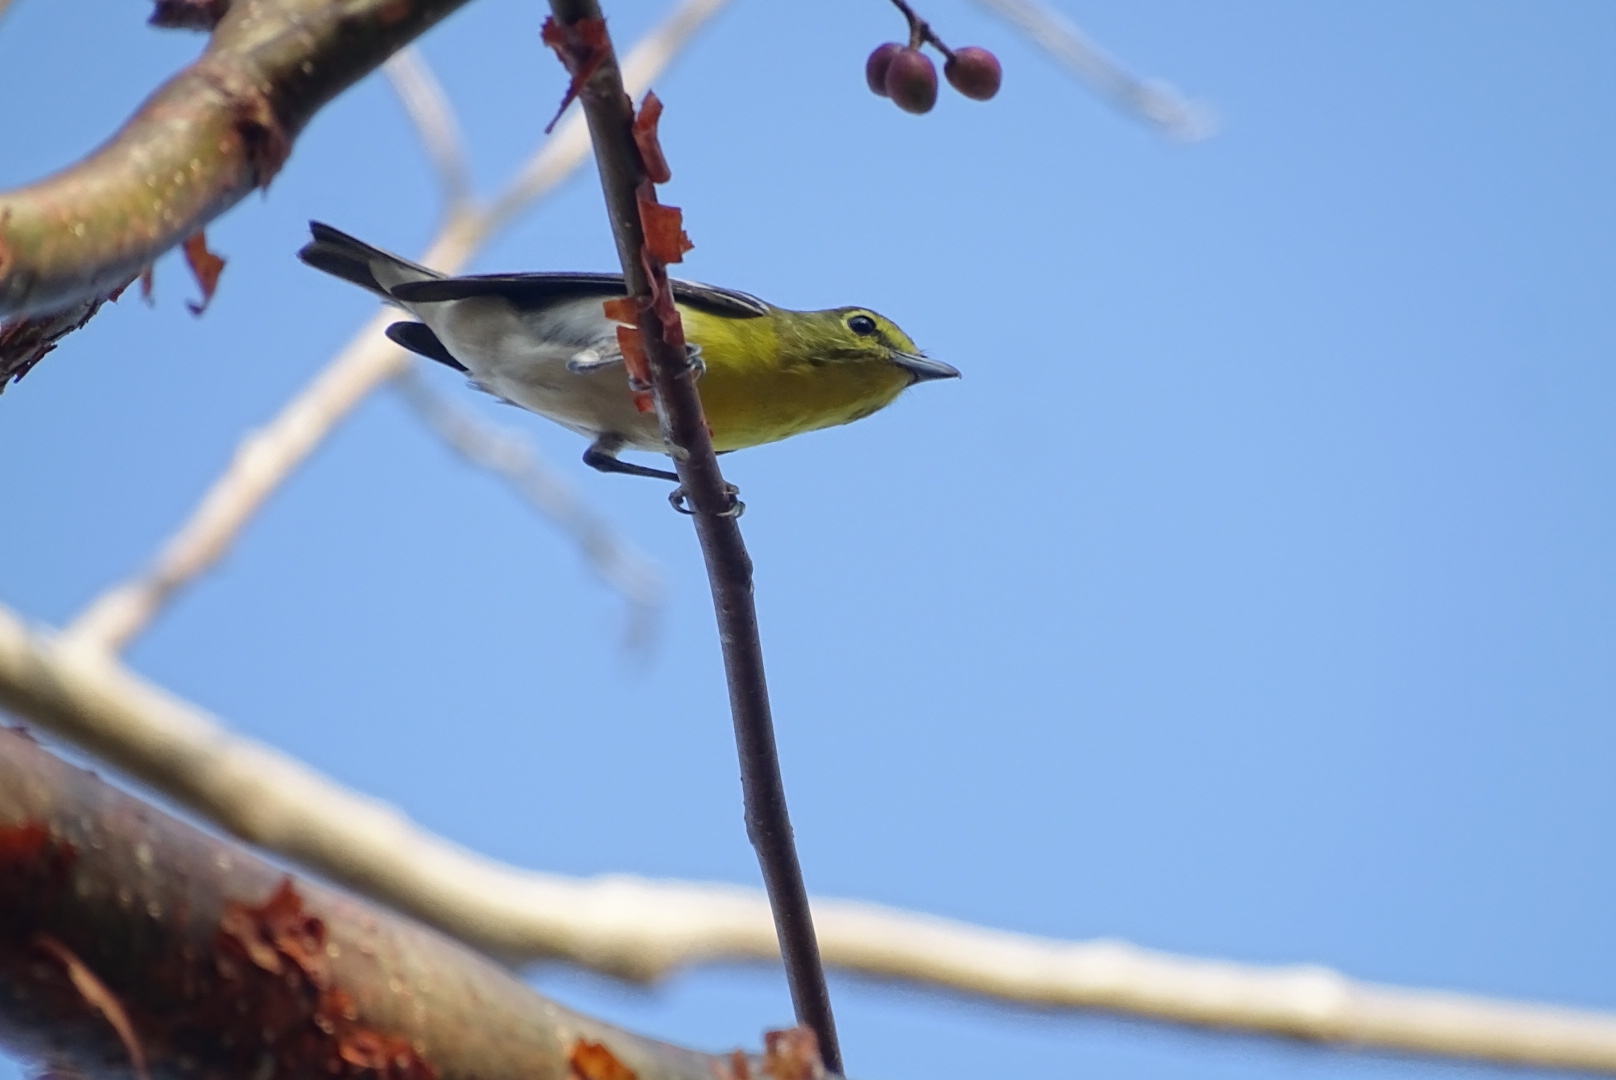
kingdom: Animalia
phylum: Chordata
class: Aves
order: Passeriformes
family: Vireonidae
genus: Vireo
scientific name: Vireo flavifrons
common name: Yellow-throated vireo
